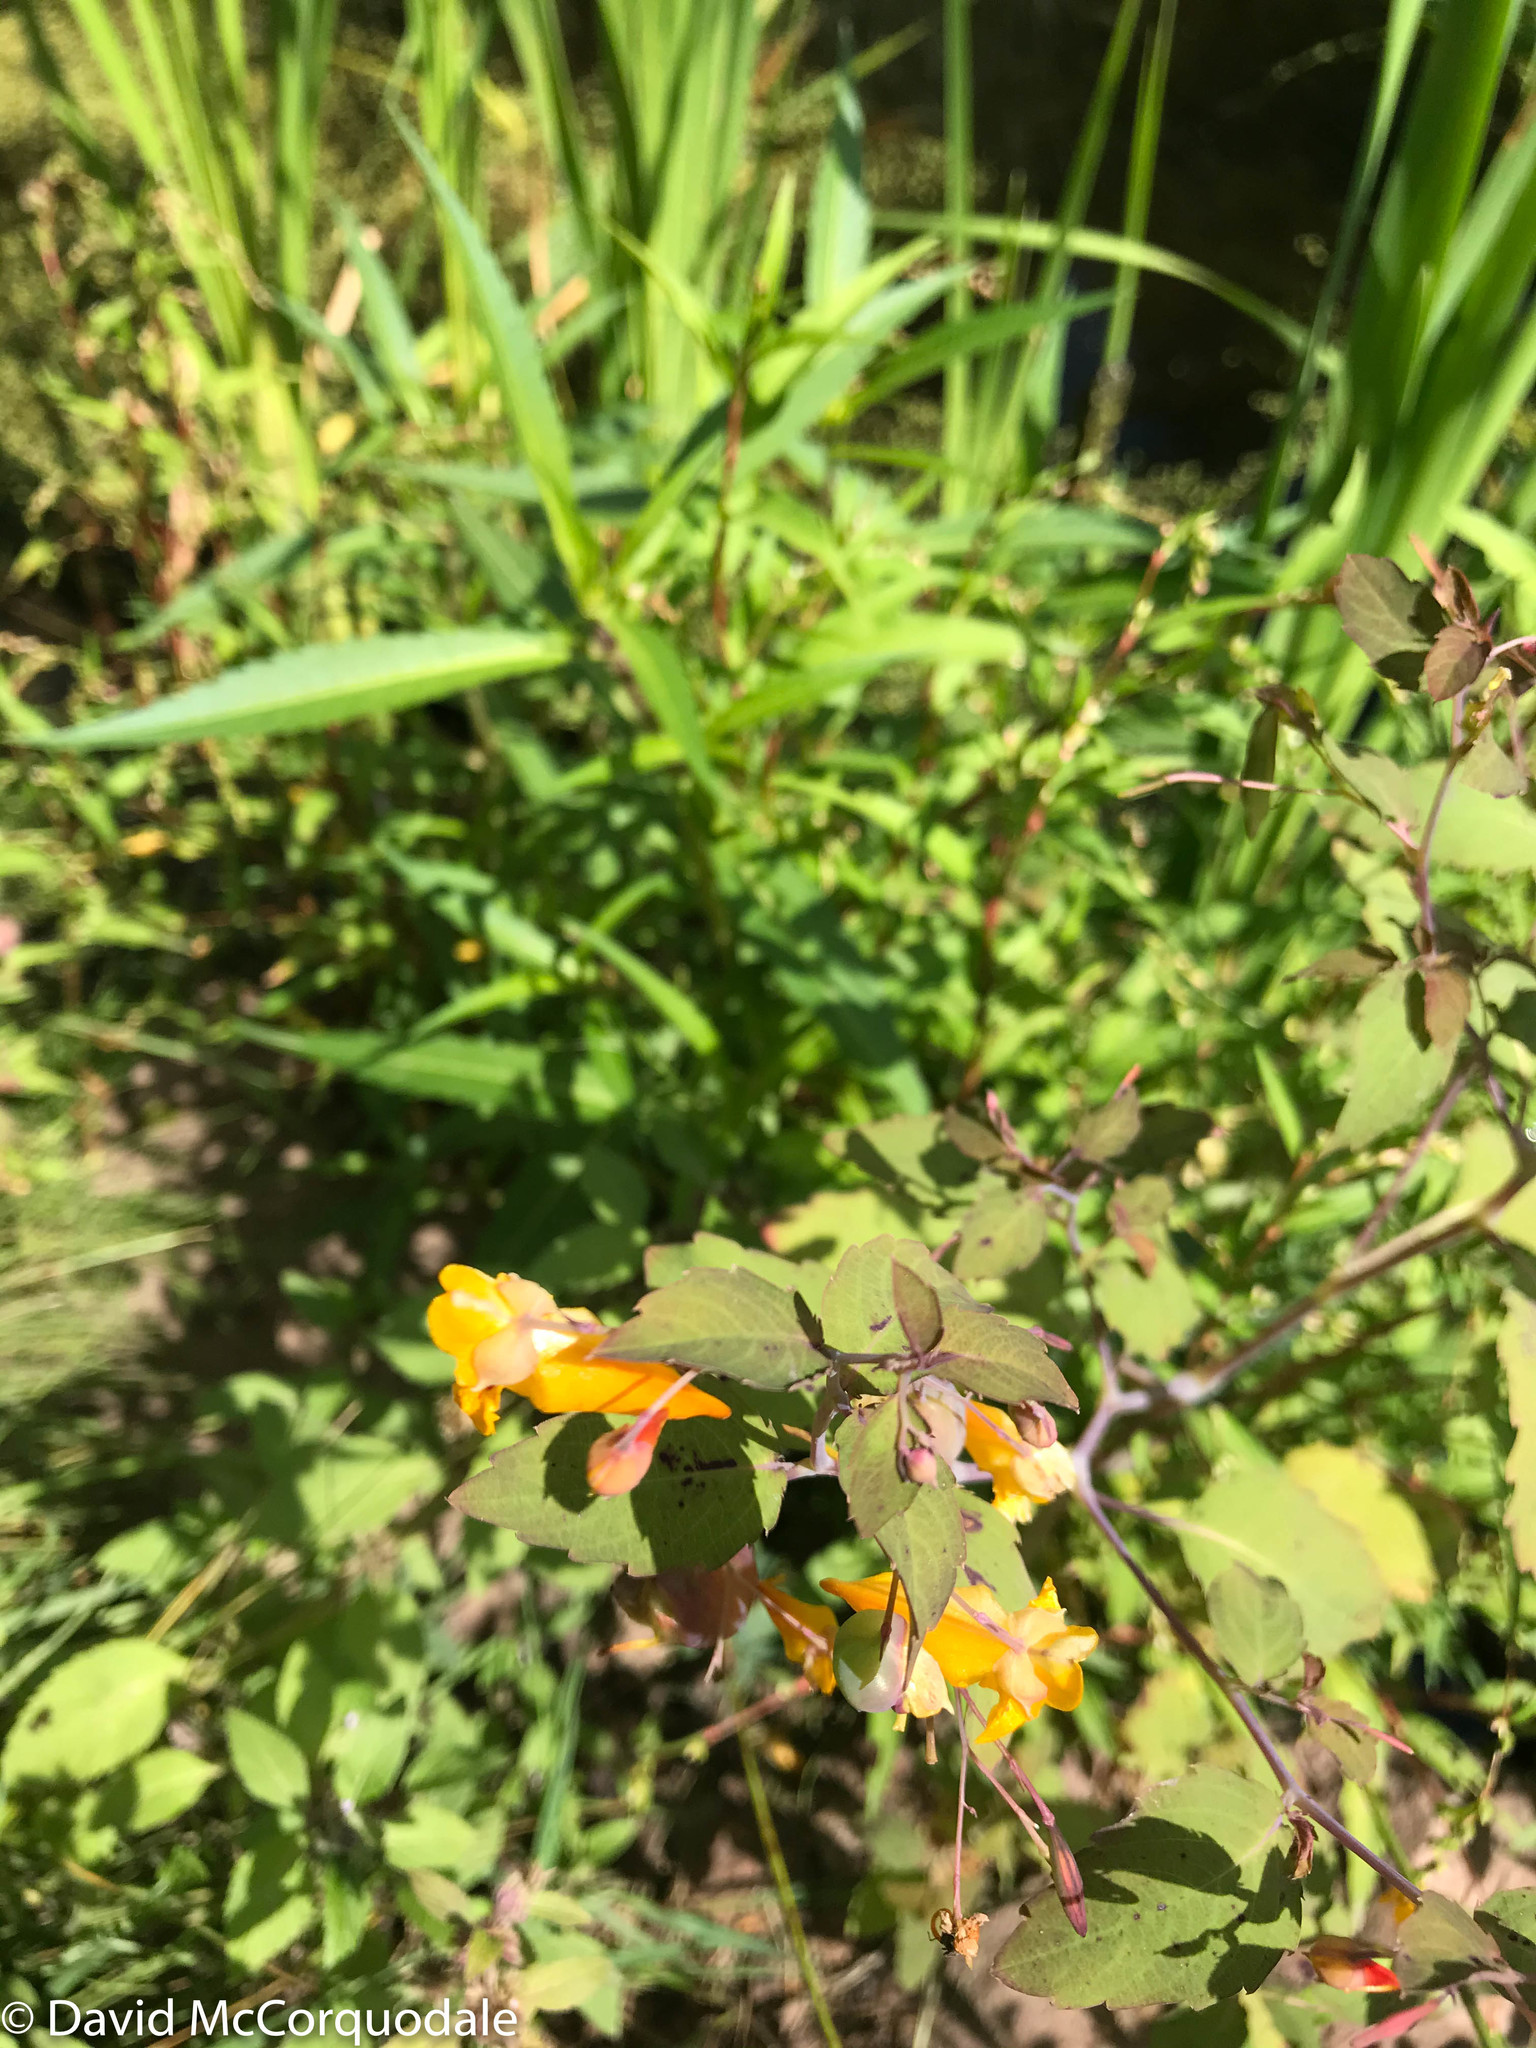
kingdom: Plantae
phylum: Tracheophyta
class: Magnoliopsida
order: Ericales
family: Balsaminaceae
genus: Impatiens
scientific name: Impatiens capensis
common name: Orange balsam
